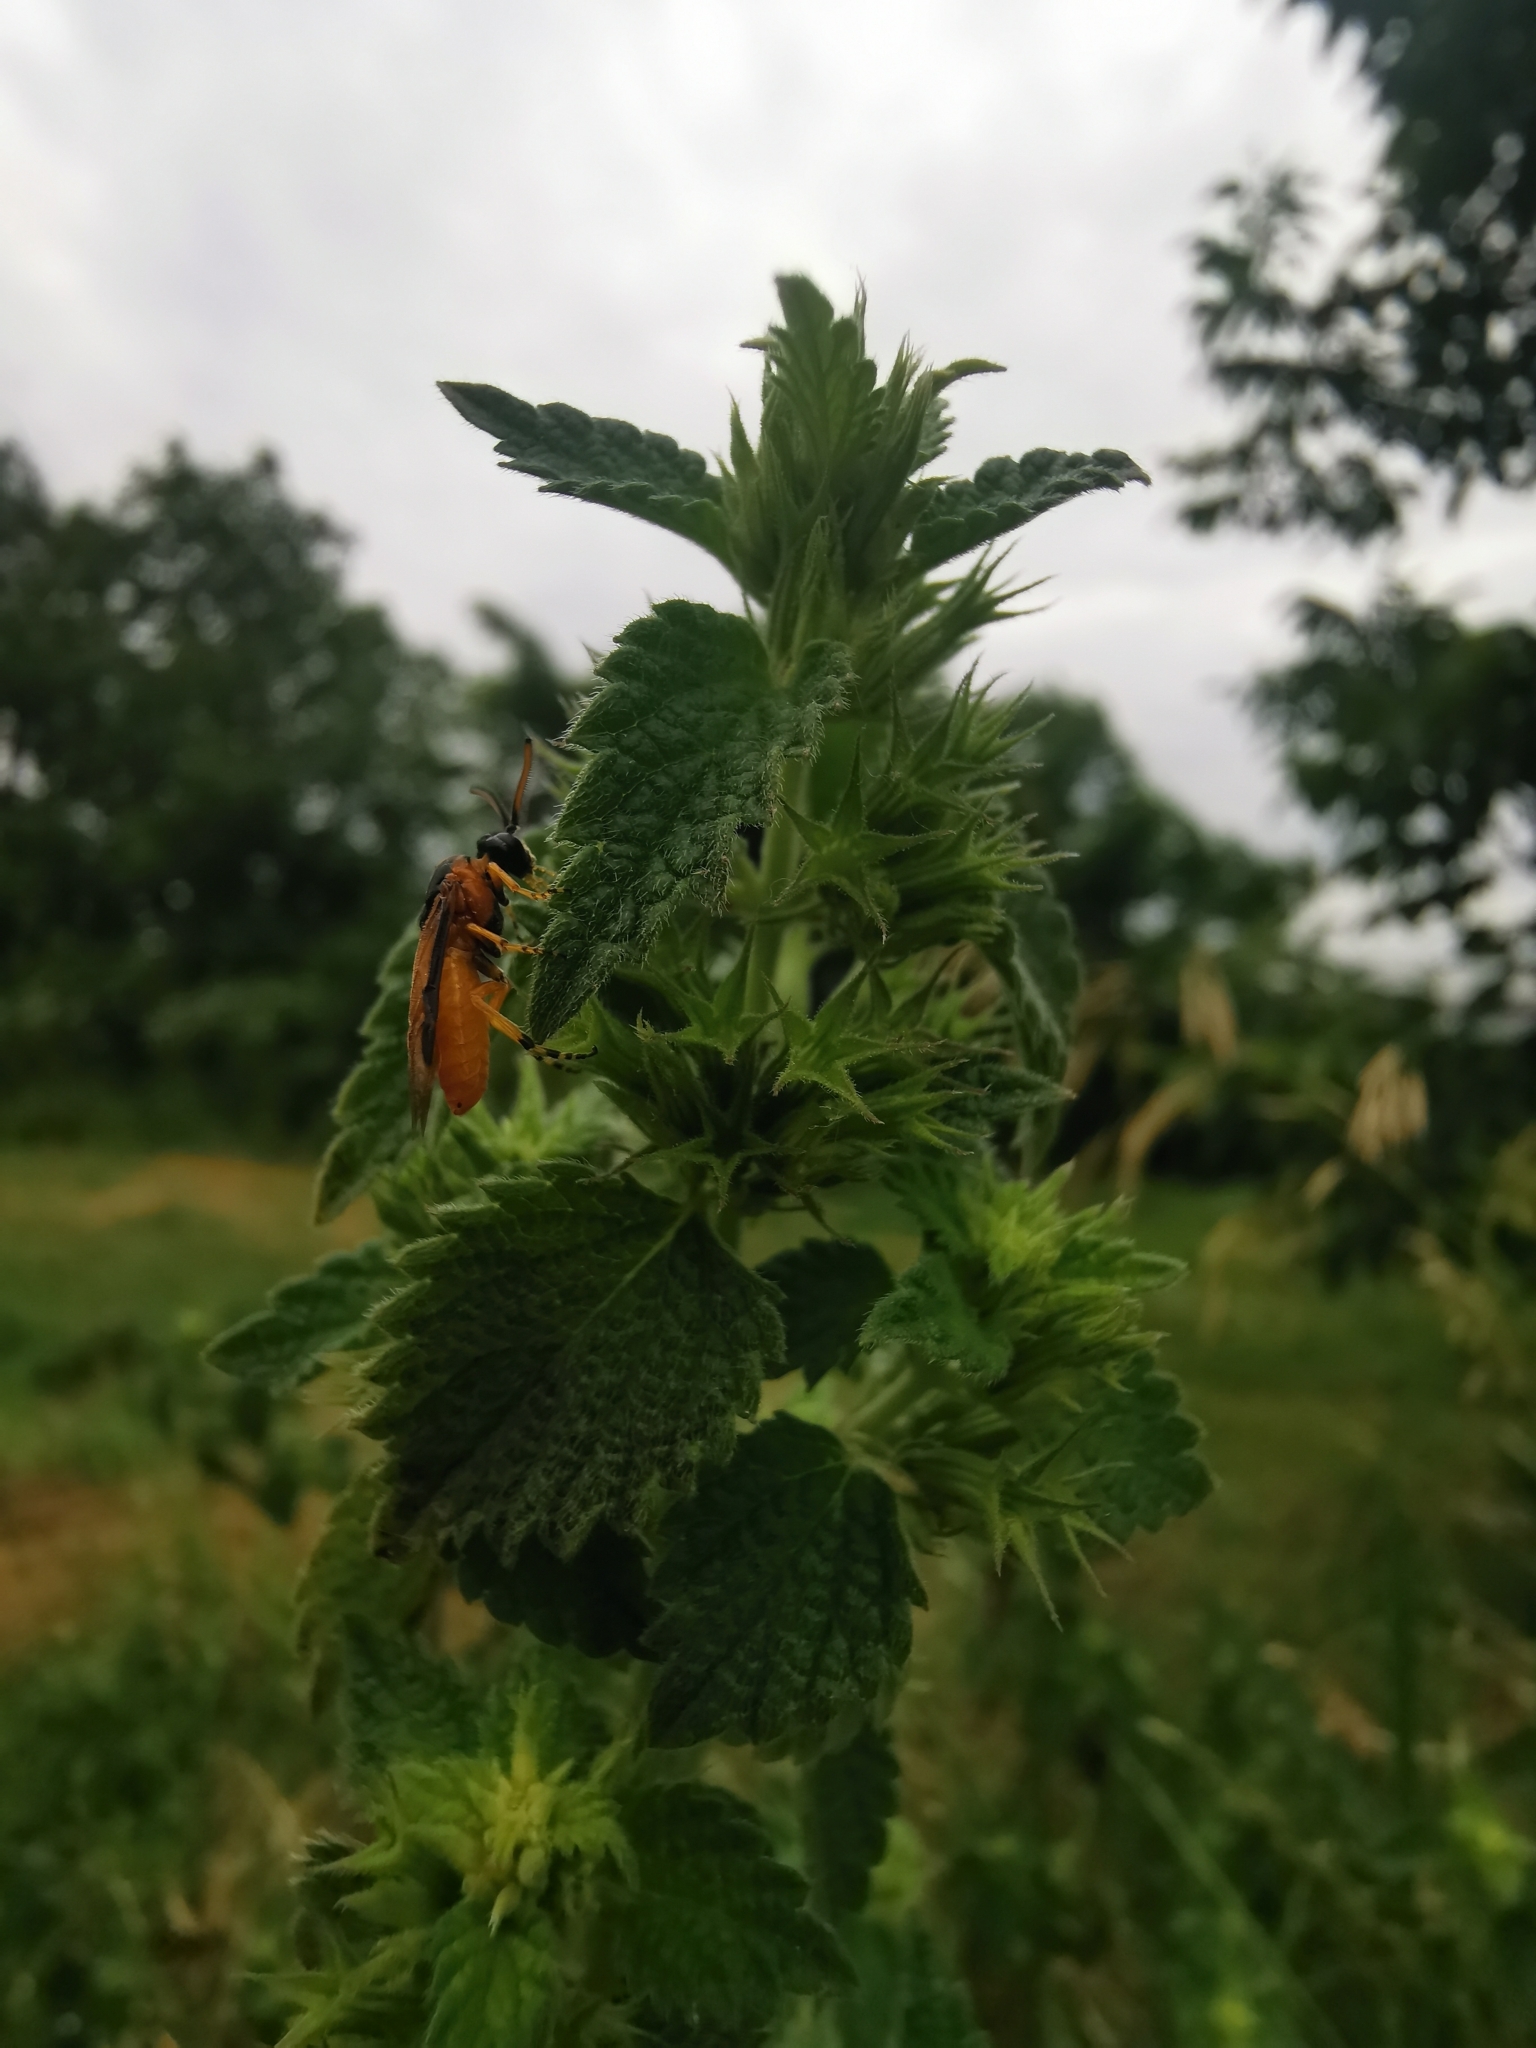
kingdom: Animalia
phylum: Arthropoda
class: Insecta
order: Hymenoptera
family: Argidae
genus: Arge
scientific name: Arge ochropus
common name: Argid sawfly
